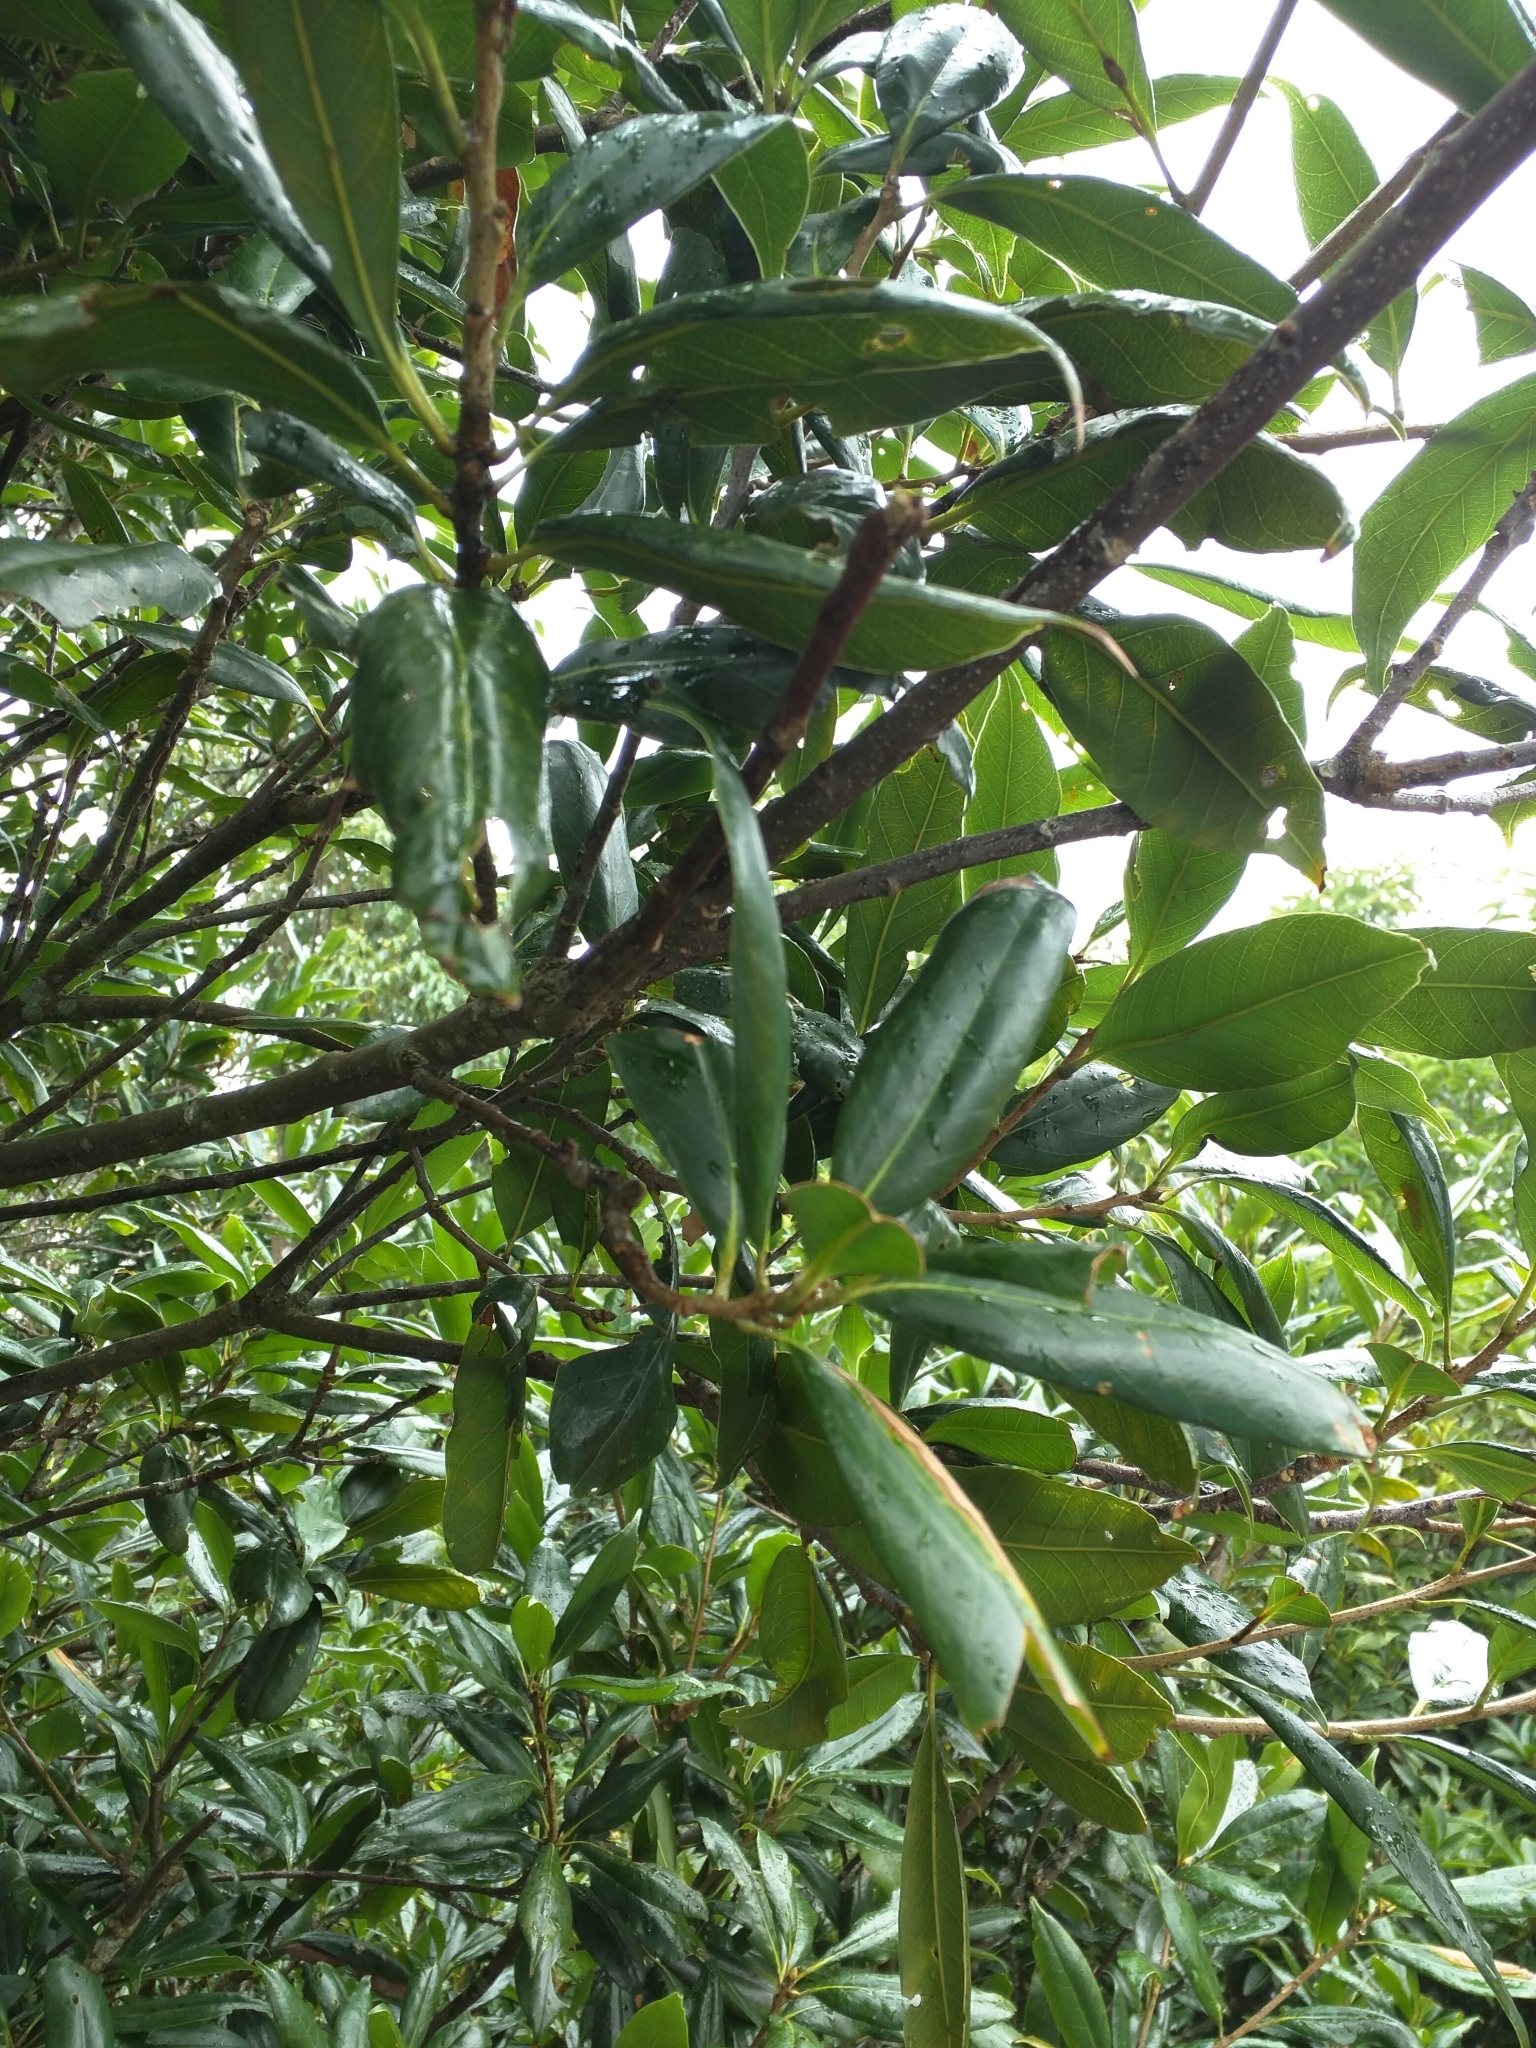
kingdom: Plantae
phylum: Tracheophyta
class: Magnoliopsida
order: Fagales
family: Fagaceae
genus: Quercus
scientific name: Quercus sessilifolia
